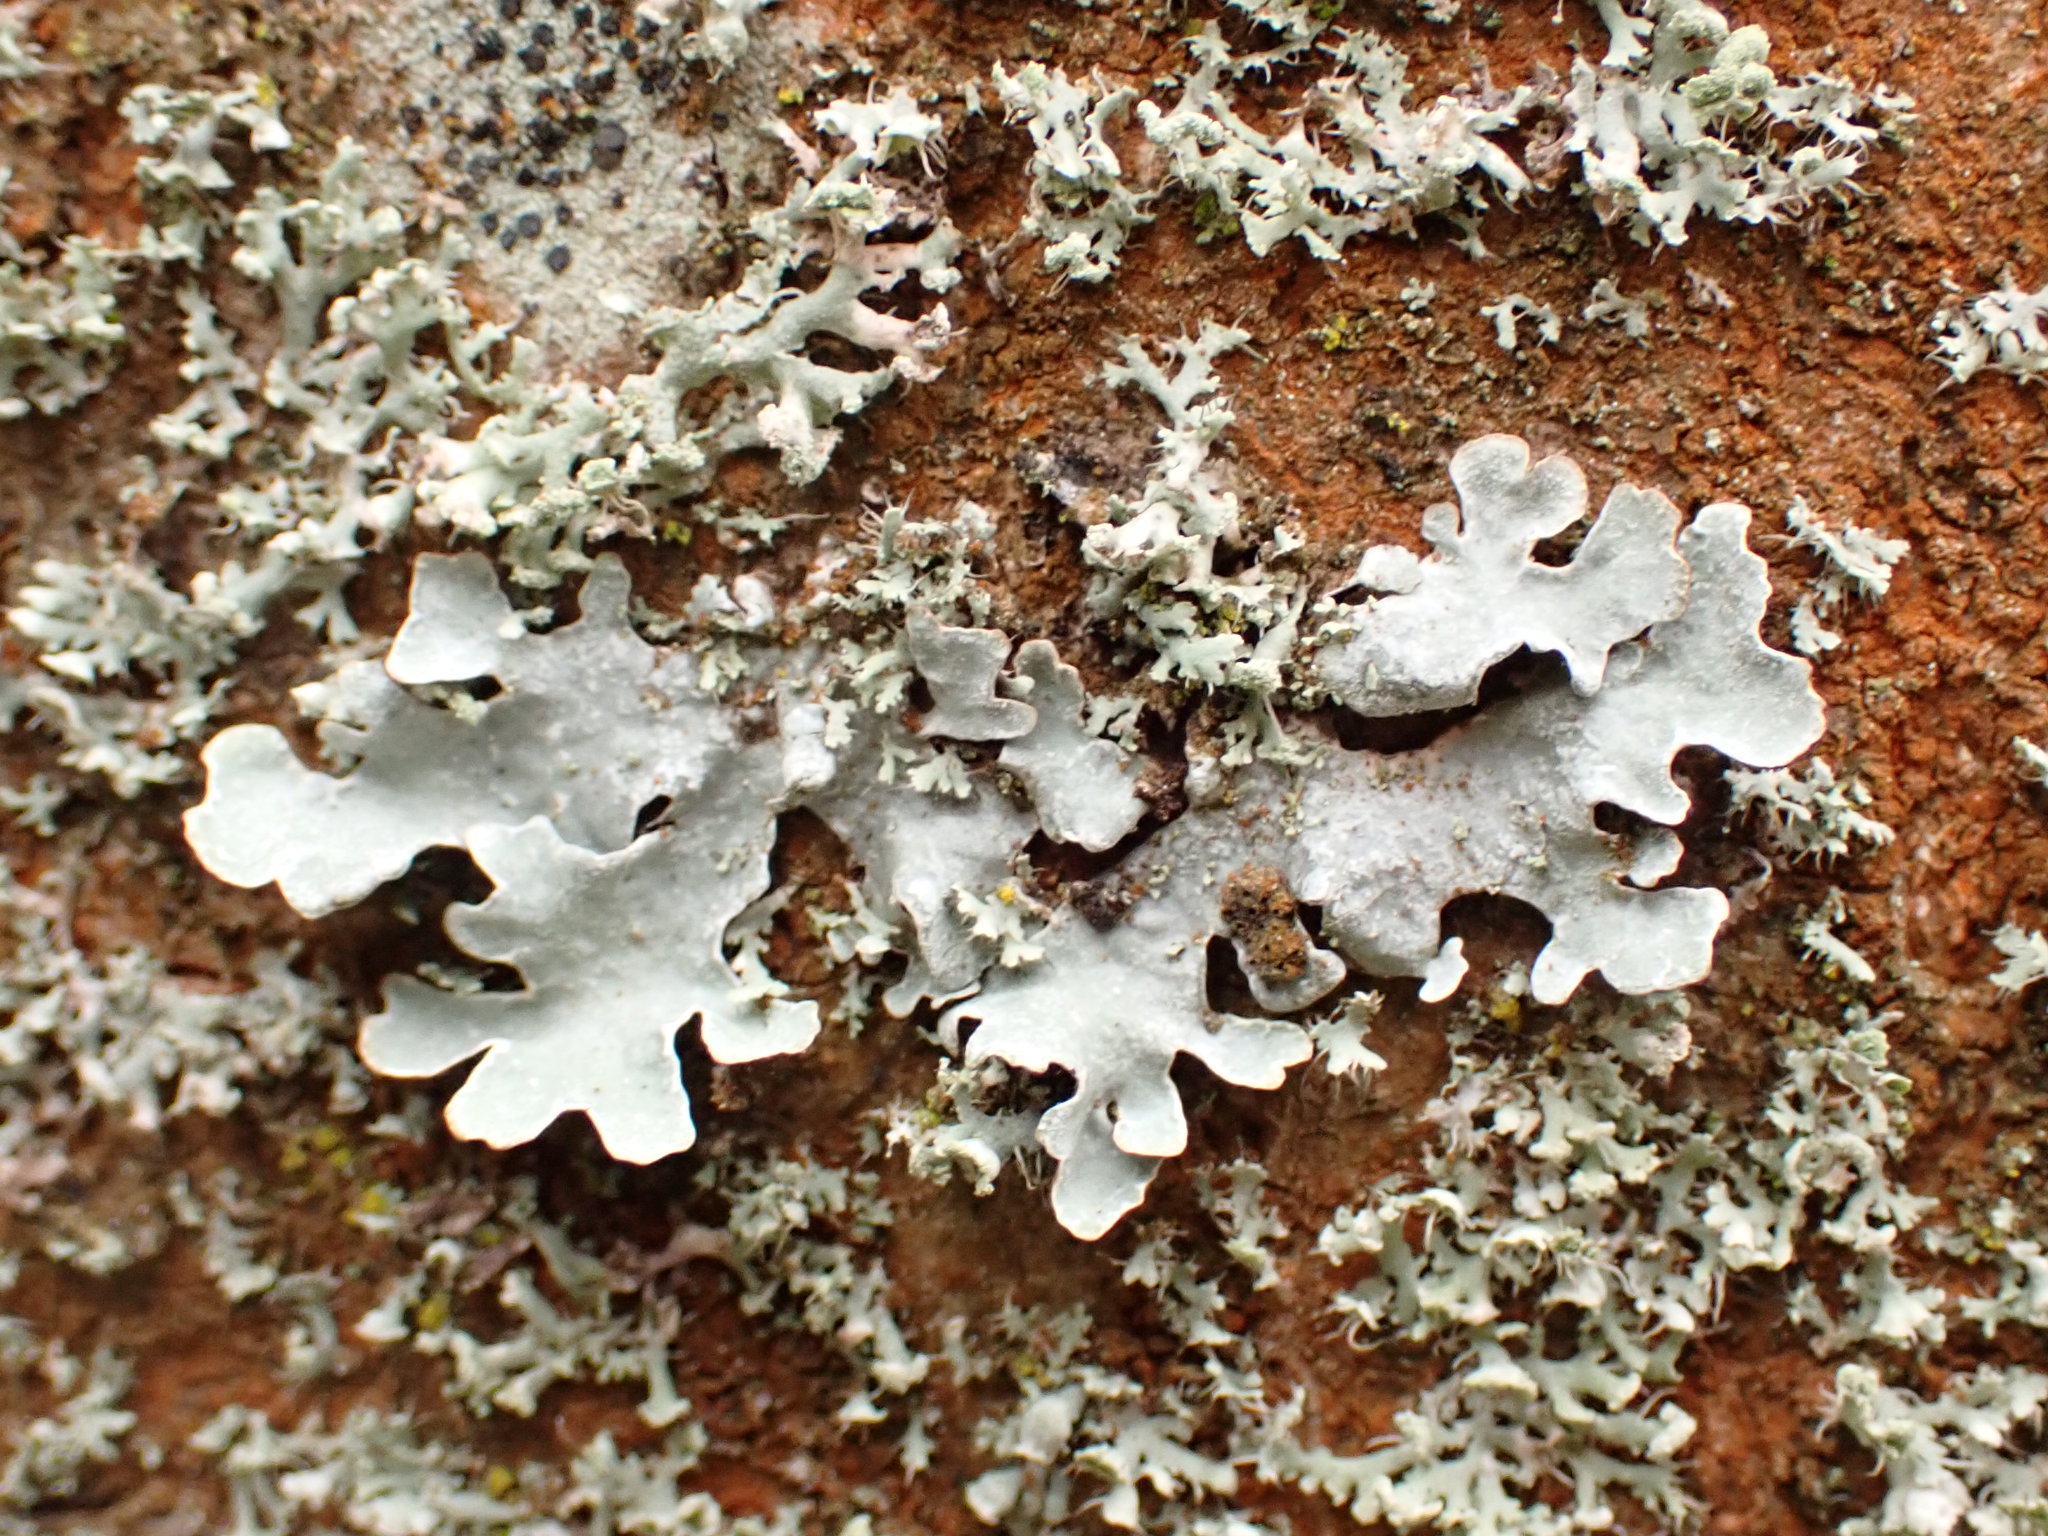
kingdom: Fungi
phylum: Ascomycota
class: Lecanoromycetes
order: Lecanorales
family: Parmeliaceae
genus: Parmelia
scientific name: Parmelia sulcata
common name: Netted shield lichen
